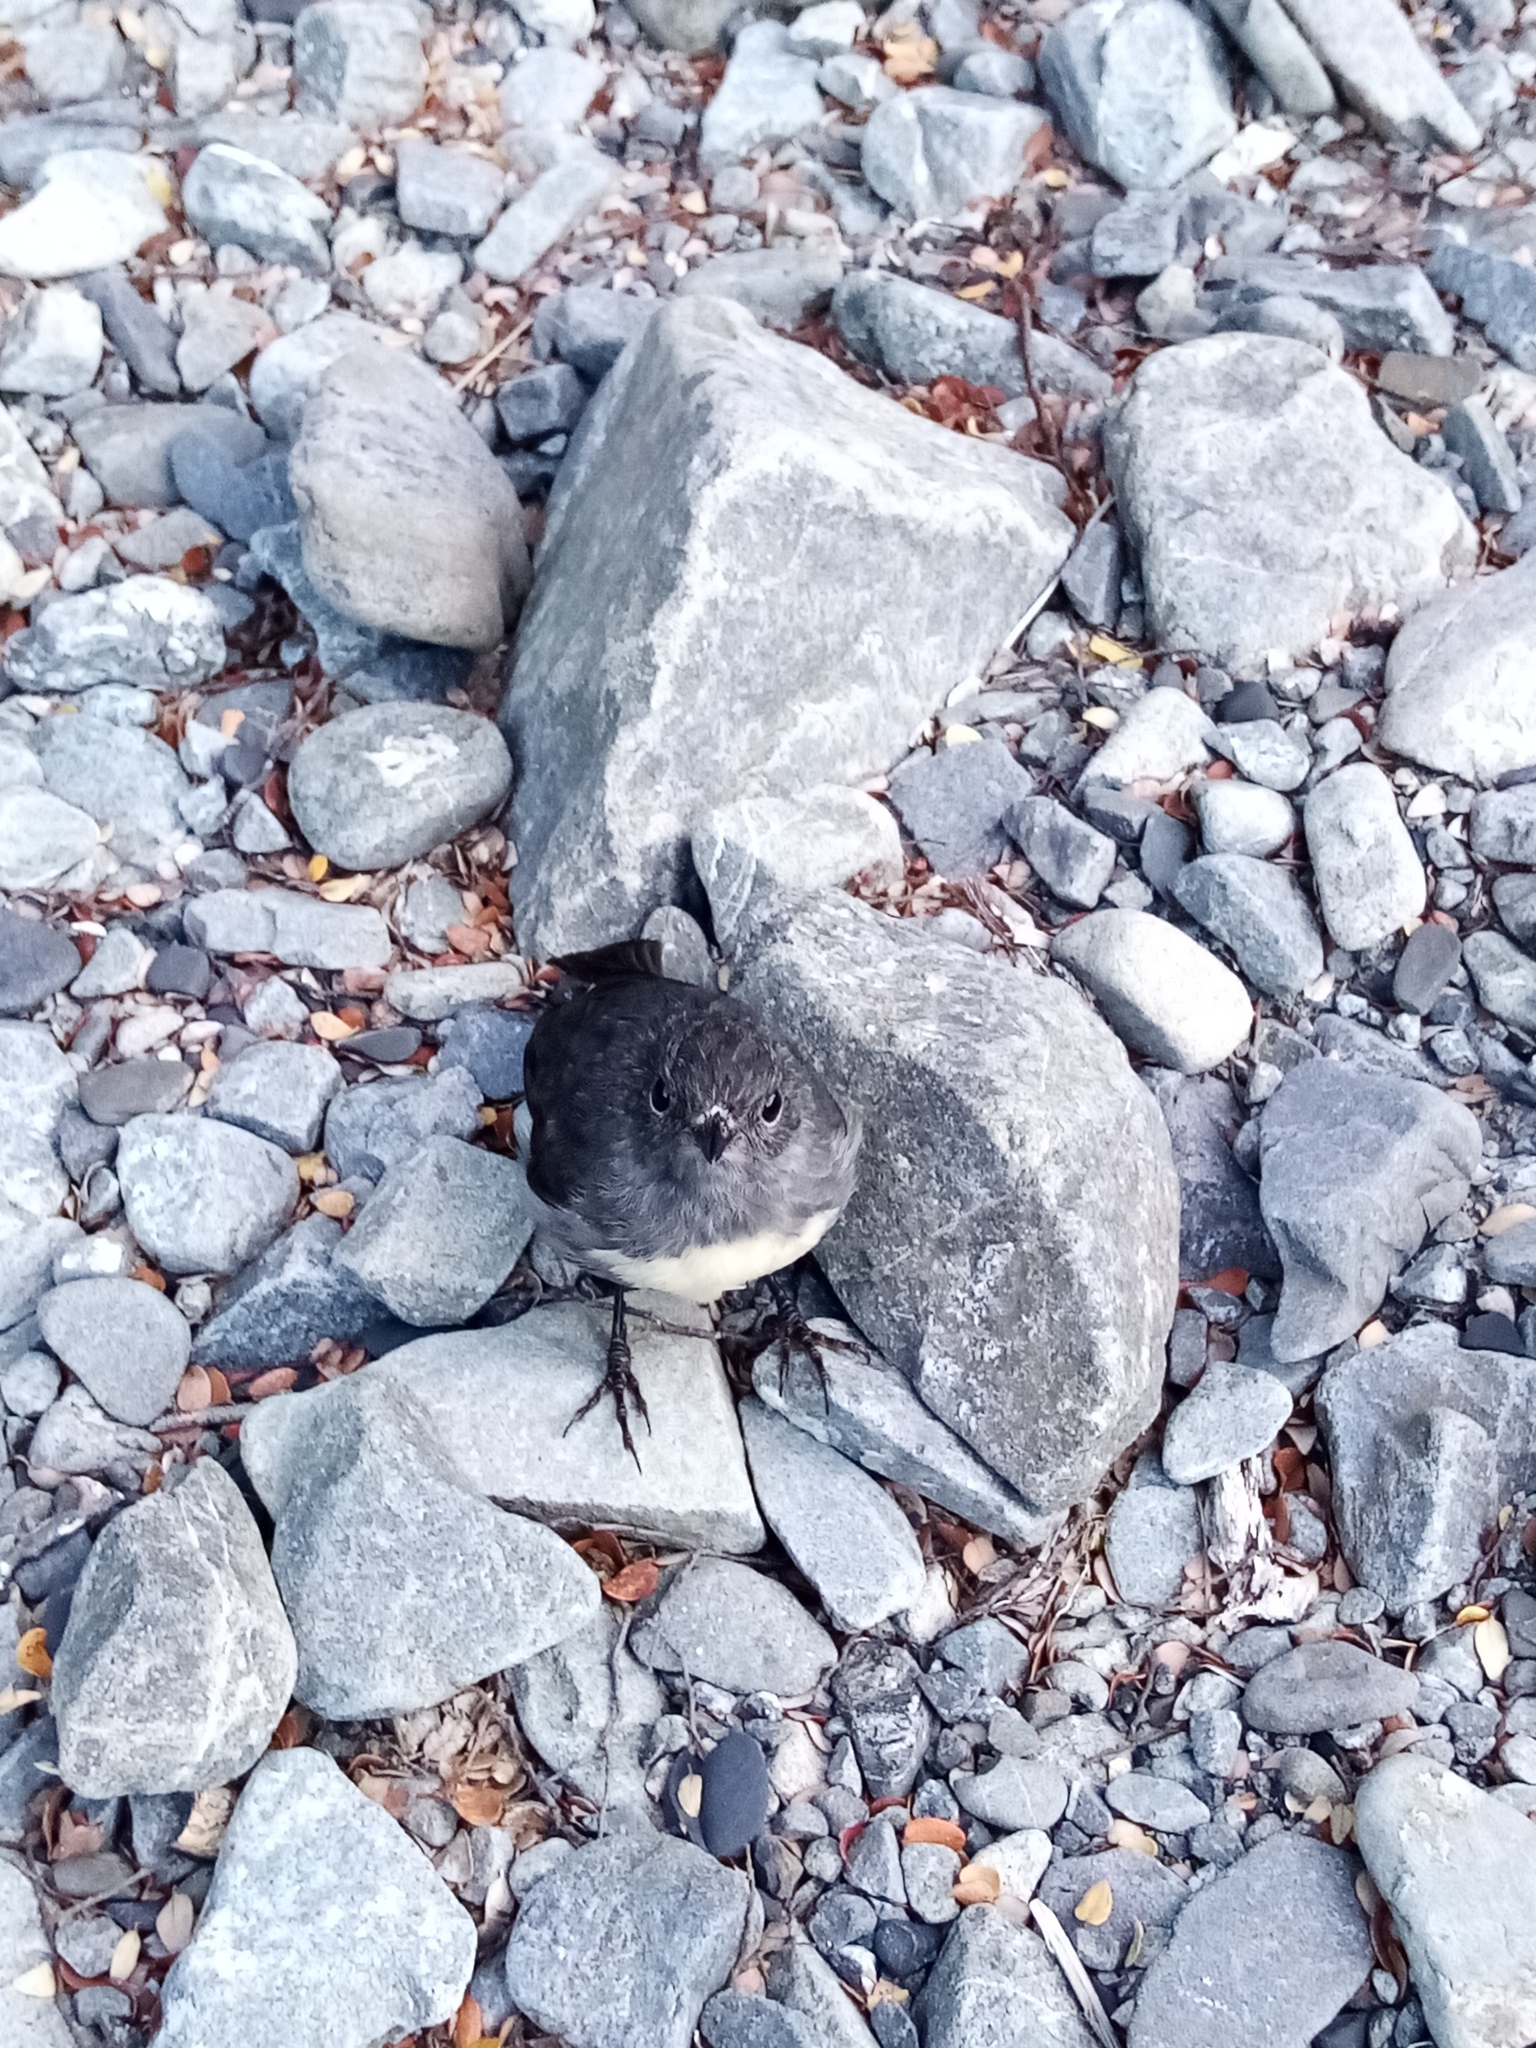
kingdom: Animalia
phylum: Chordata
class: Aves
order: Passeriformes
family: Petroicidae
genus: Petroica
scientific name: Petroica australis
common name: New zealand robin
